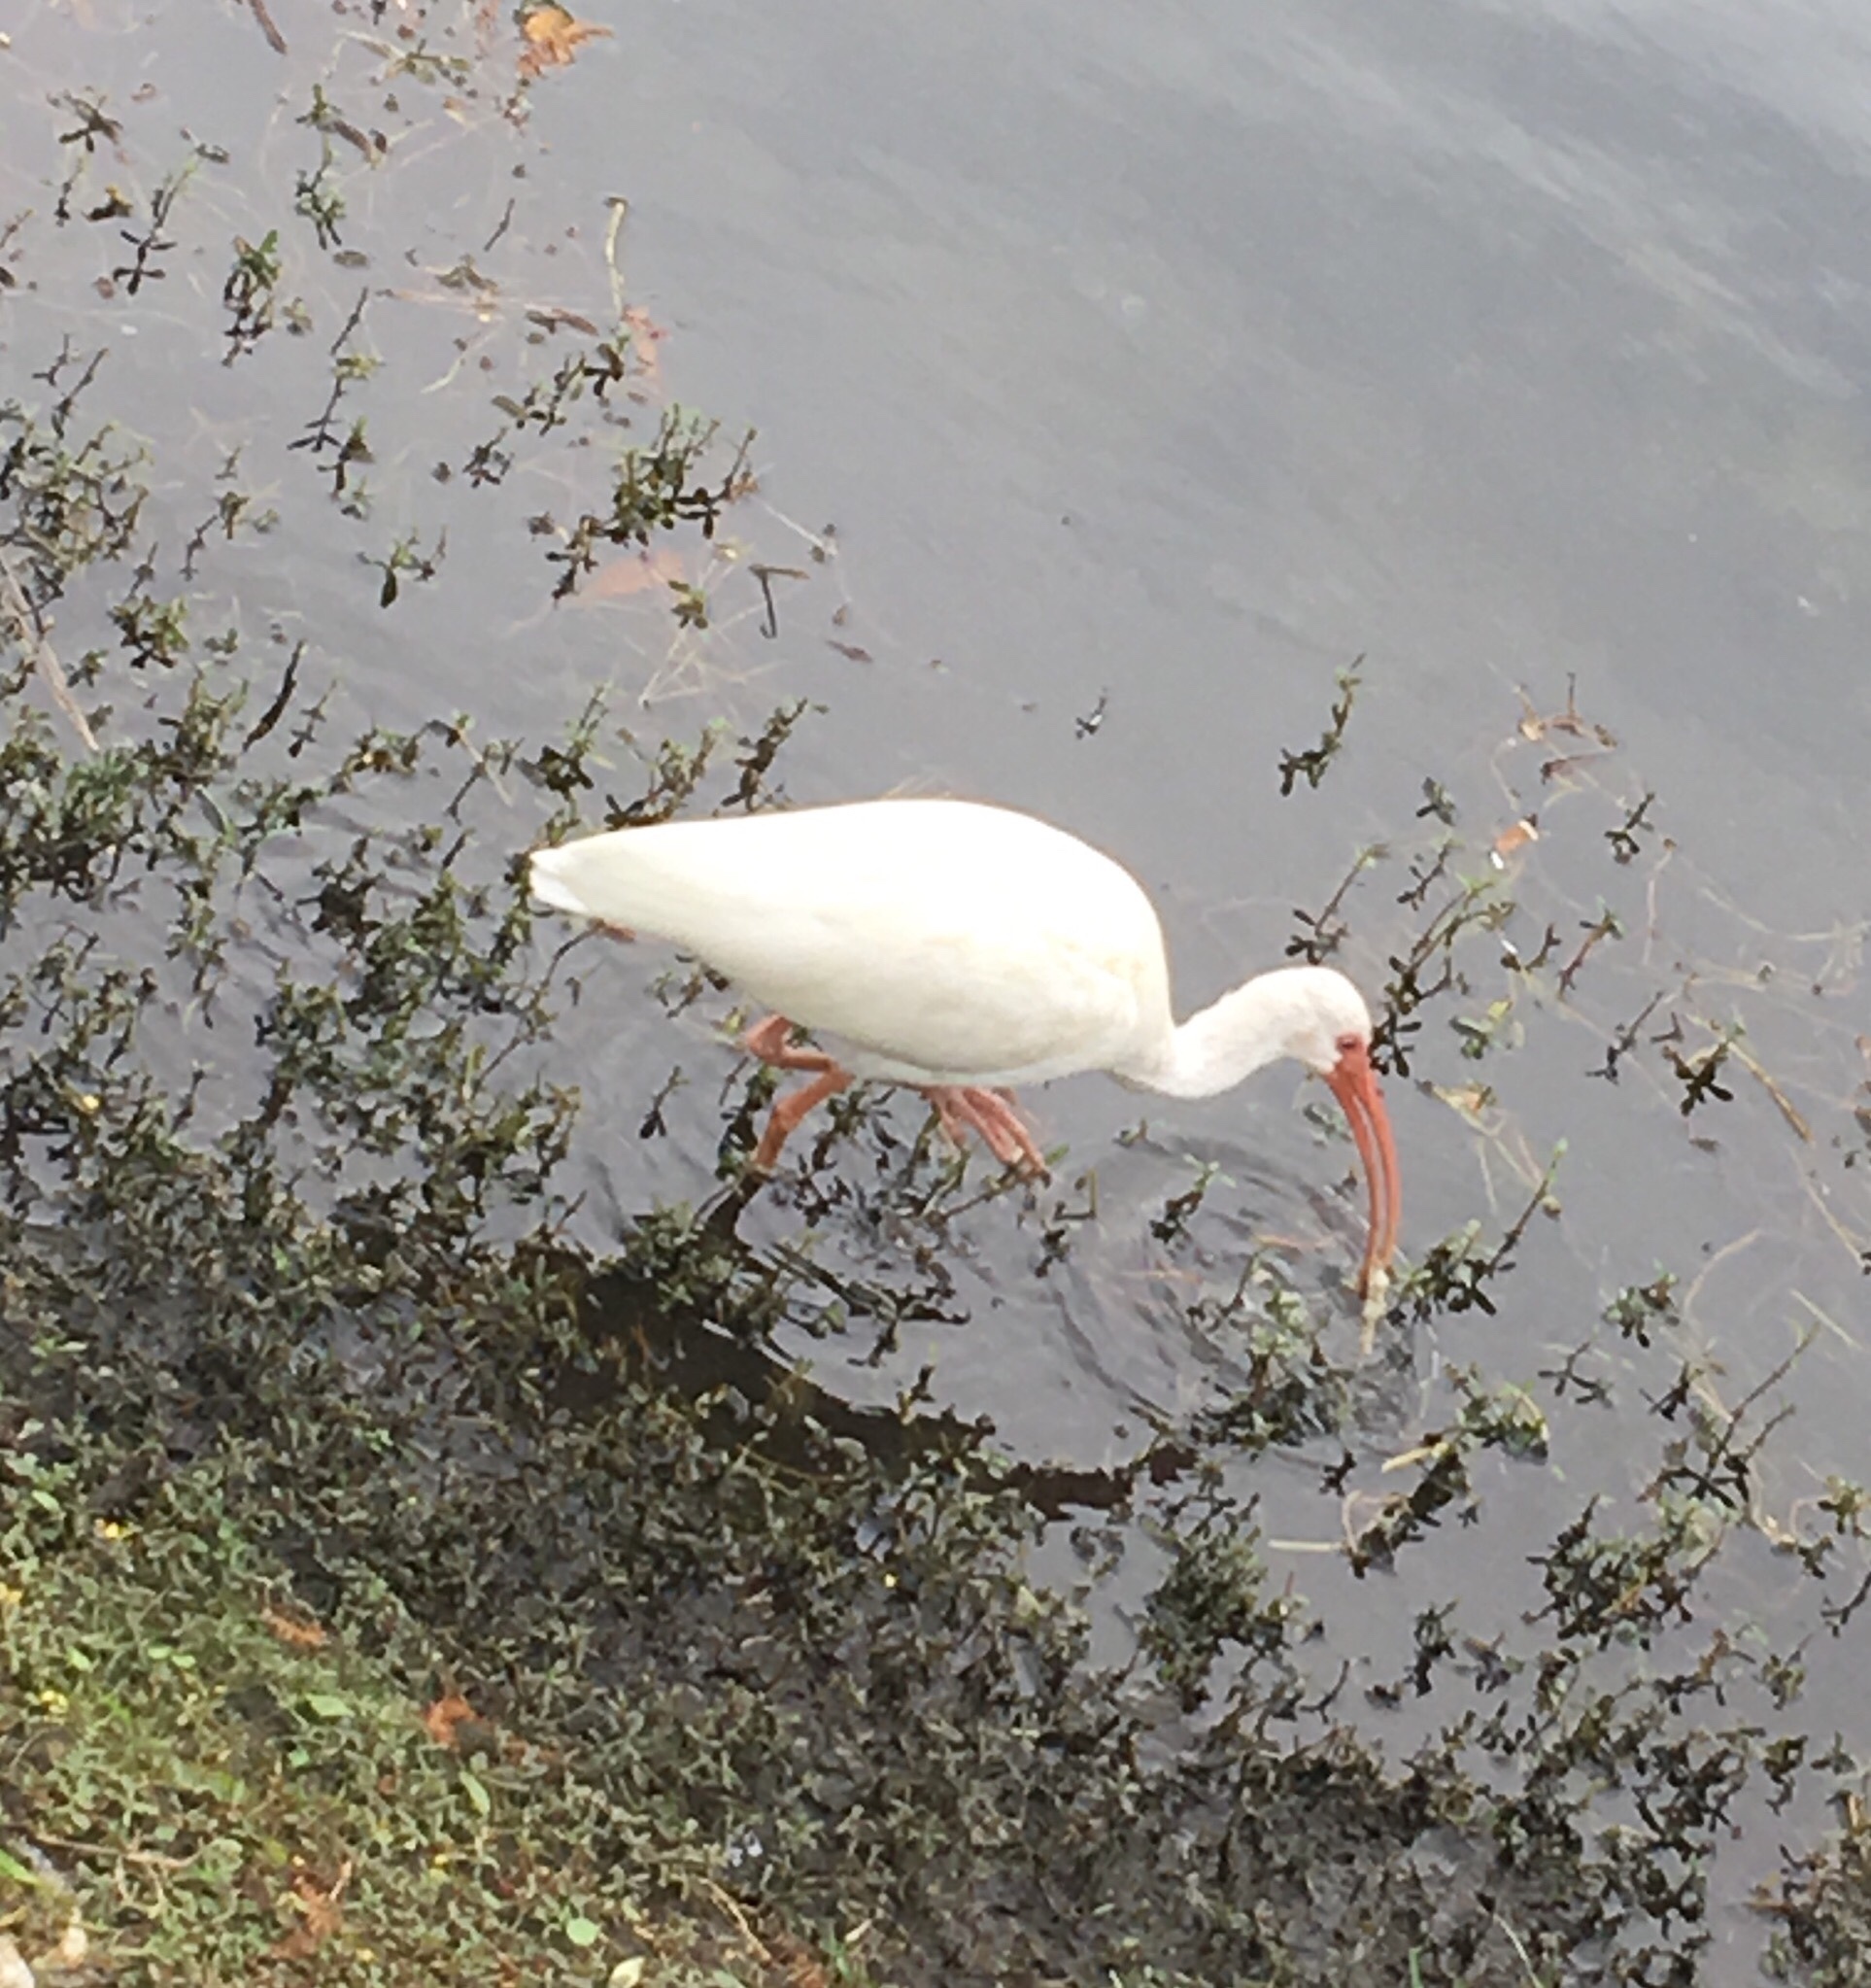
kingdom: Animalia
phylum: Chordata
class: Aves
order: Pelecaniformes
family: Threskiornithidae
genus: Eudocimus
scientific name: Eudocimus albus
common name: White ibis
